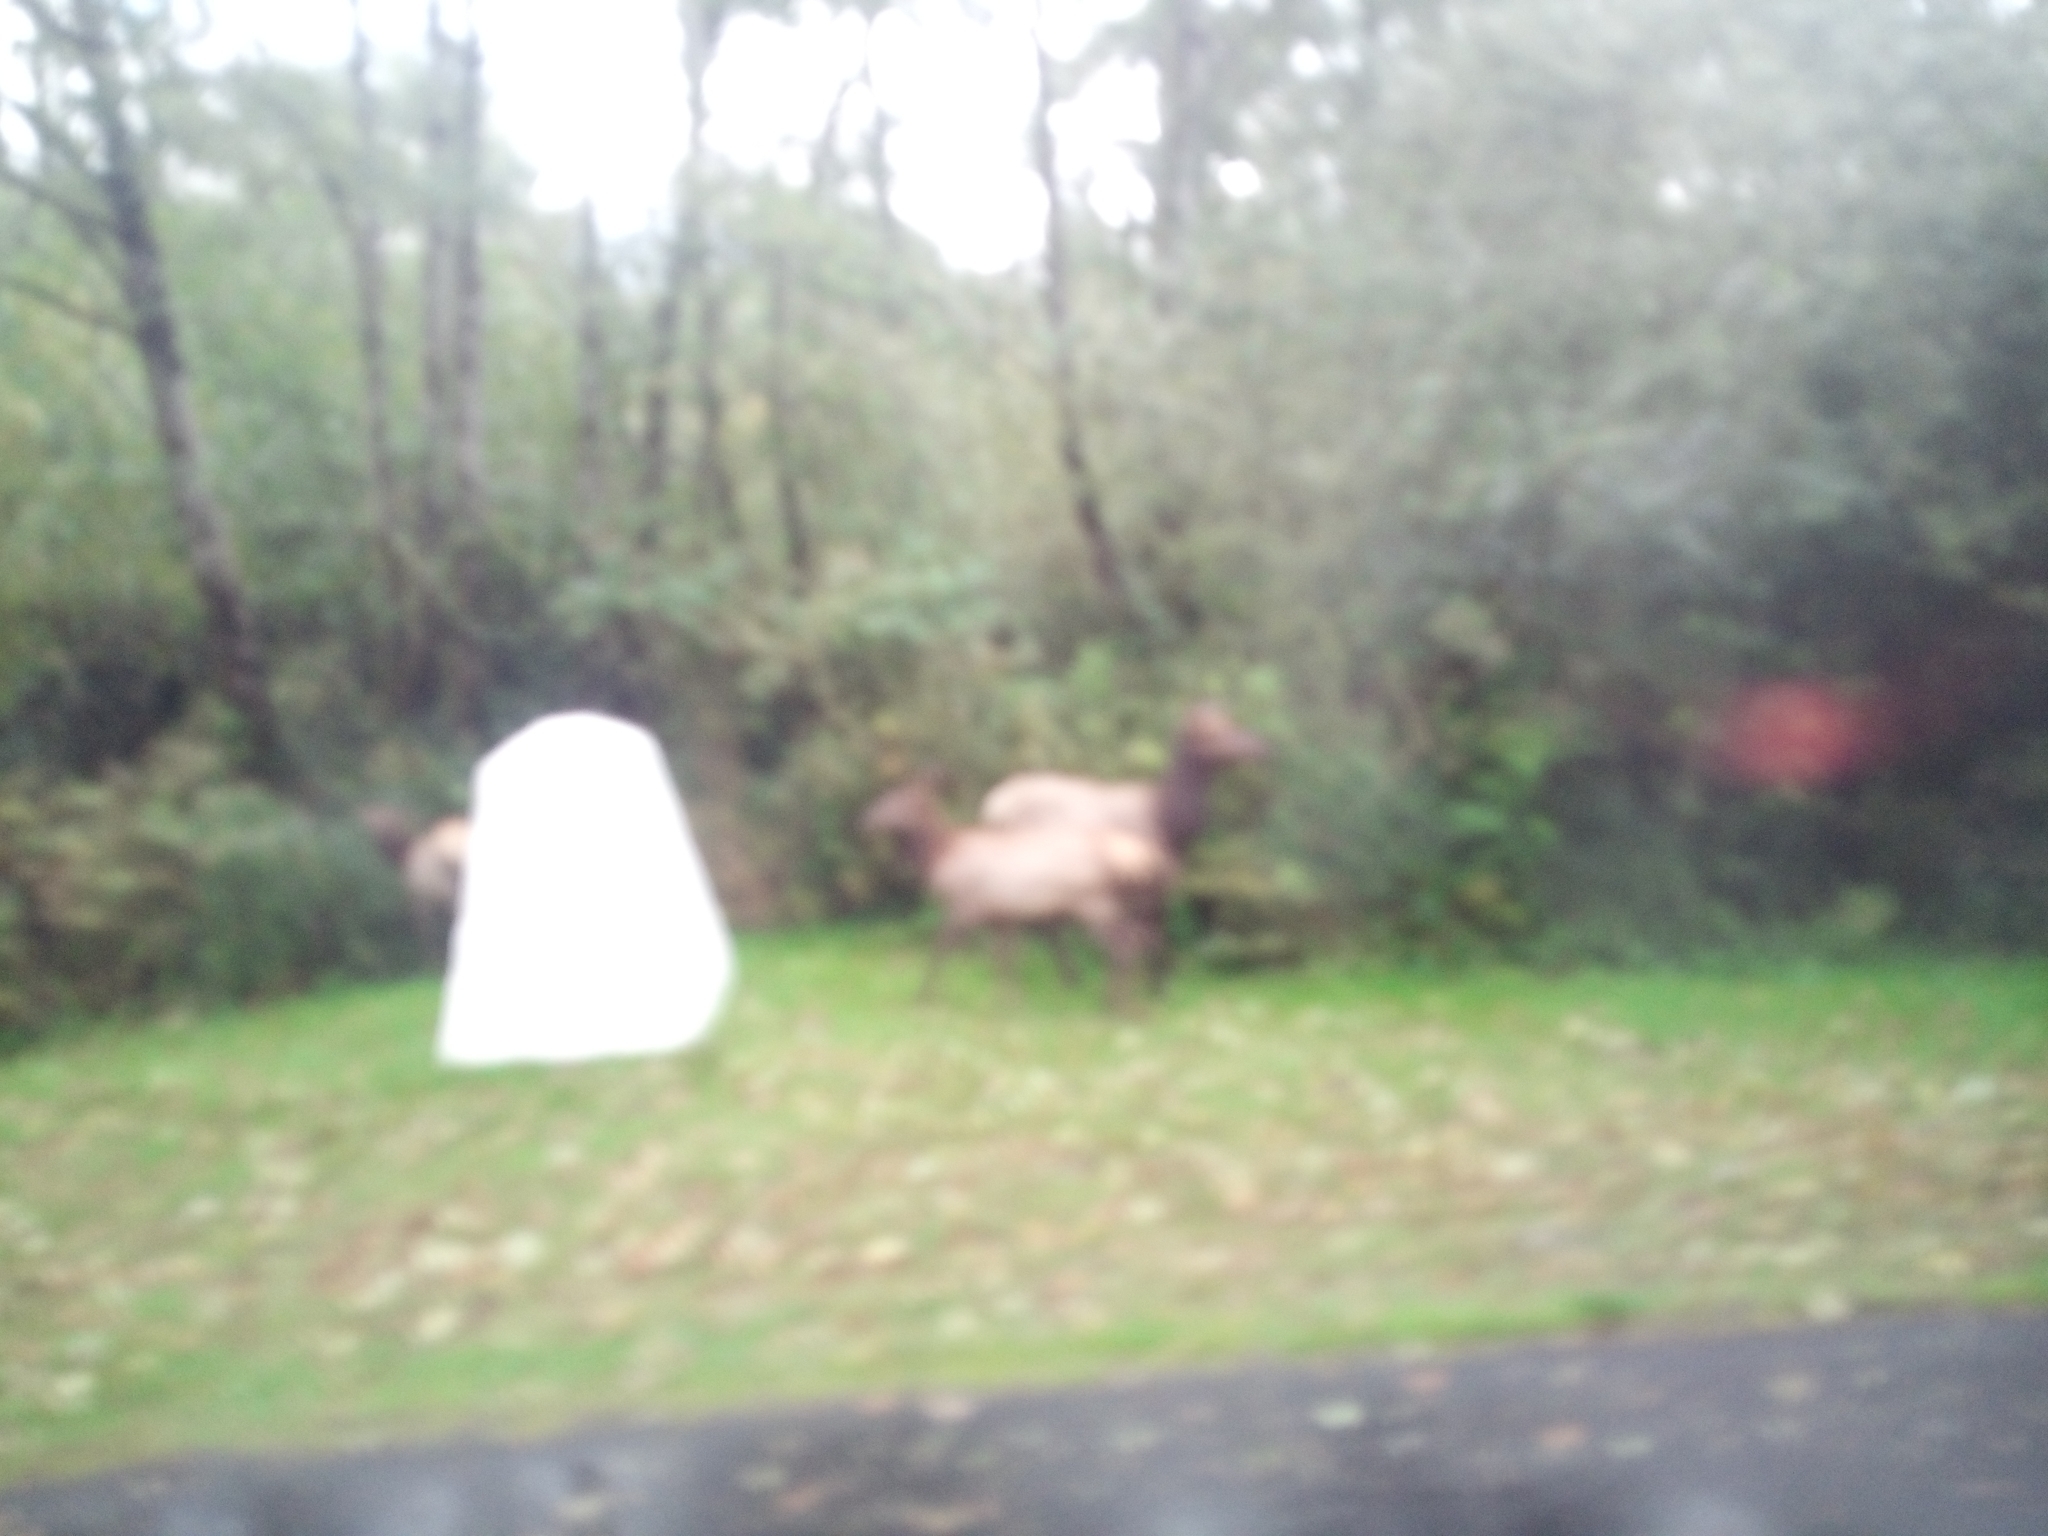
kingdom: Animalia
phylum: Chordata
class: Mammalia
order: Artiodactyla
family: Cervidae
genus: Cervus
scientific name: Cervus elaphus
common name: Red deer
